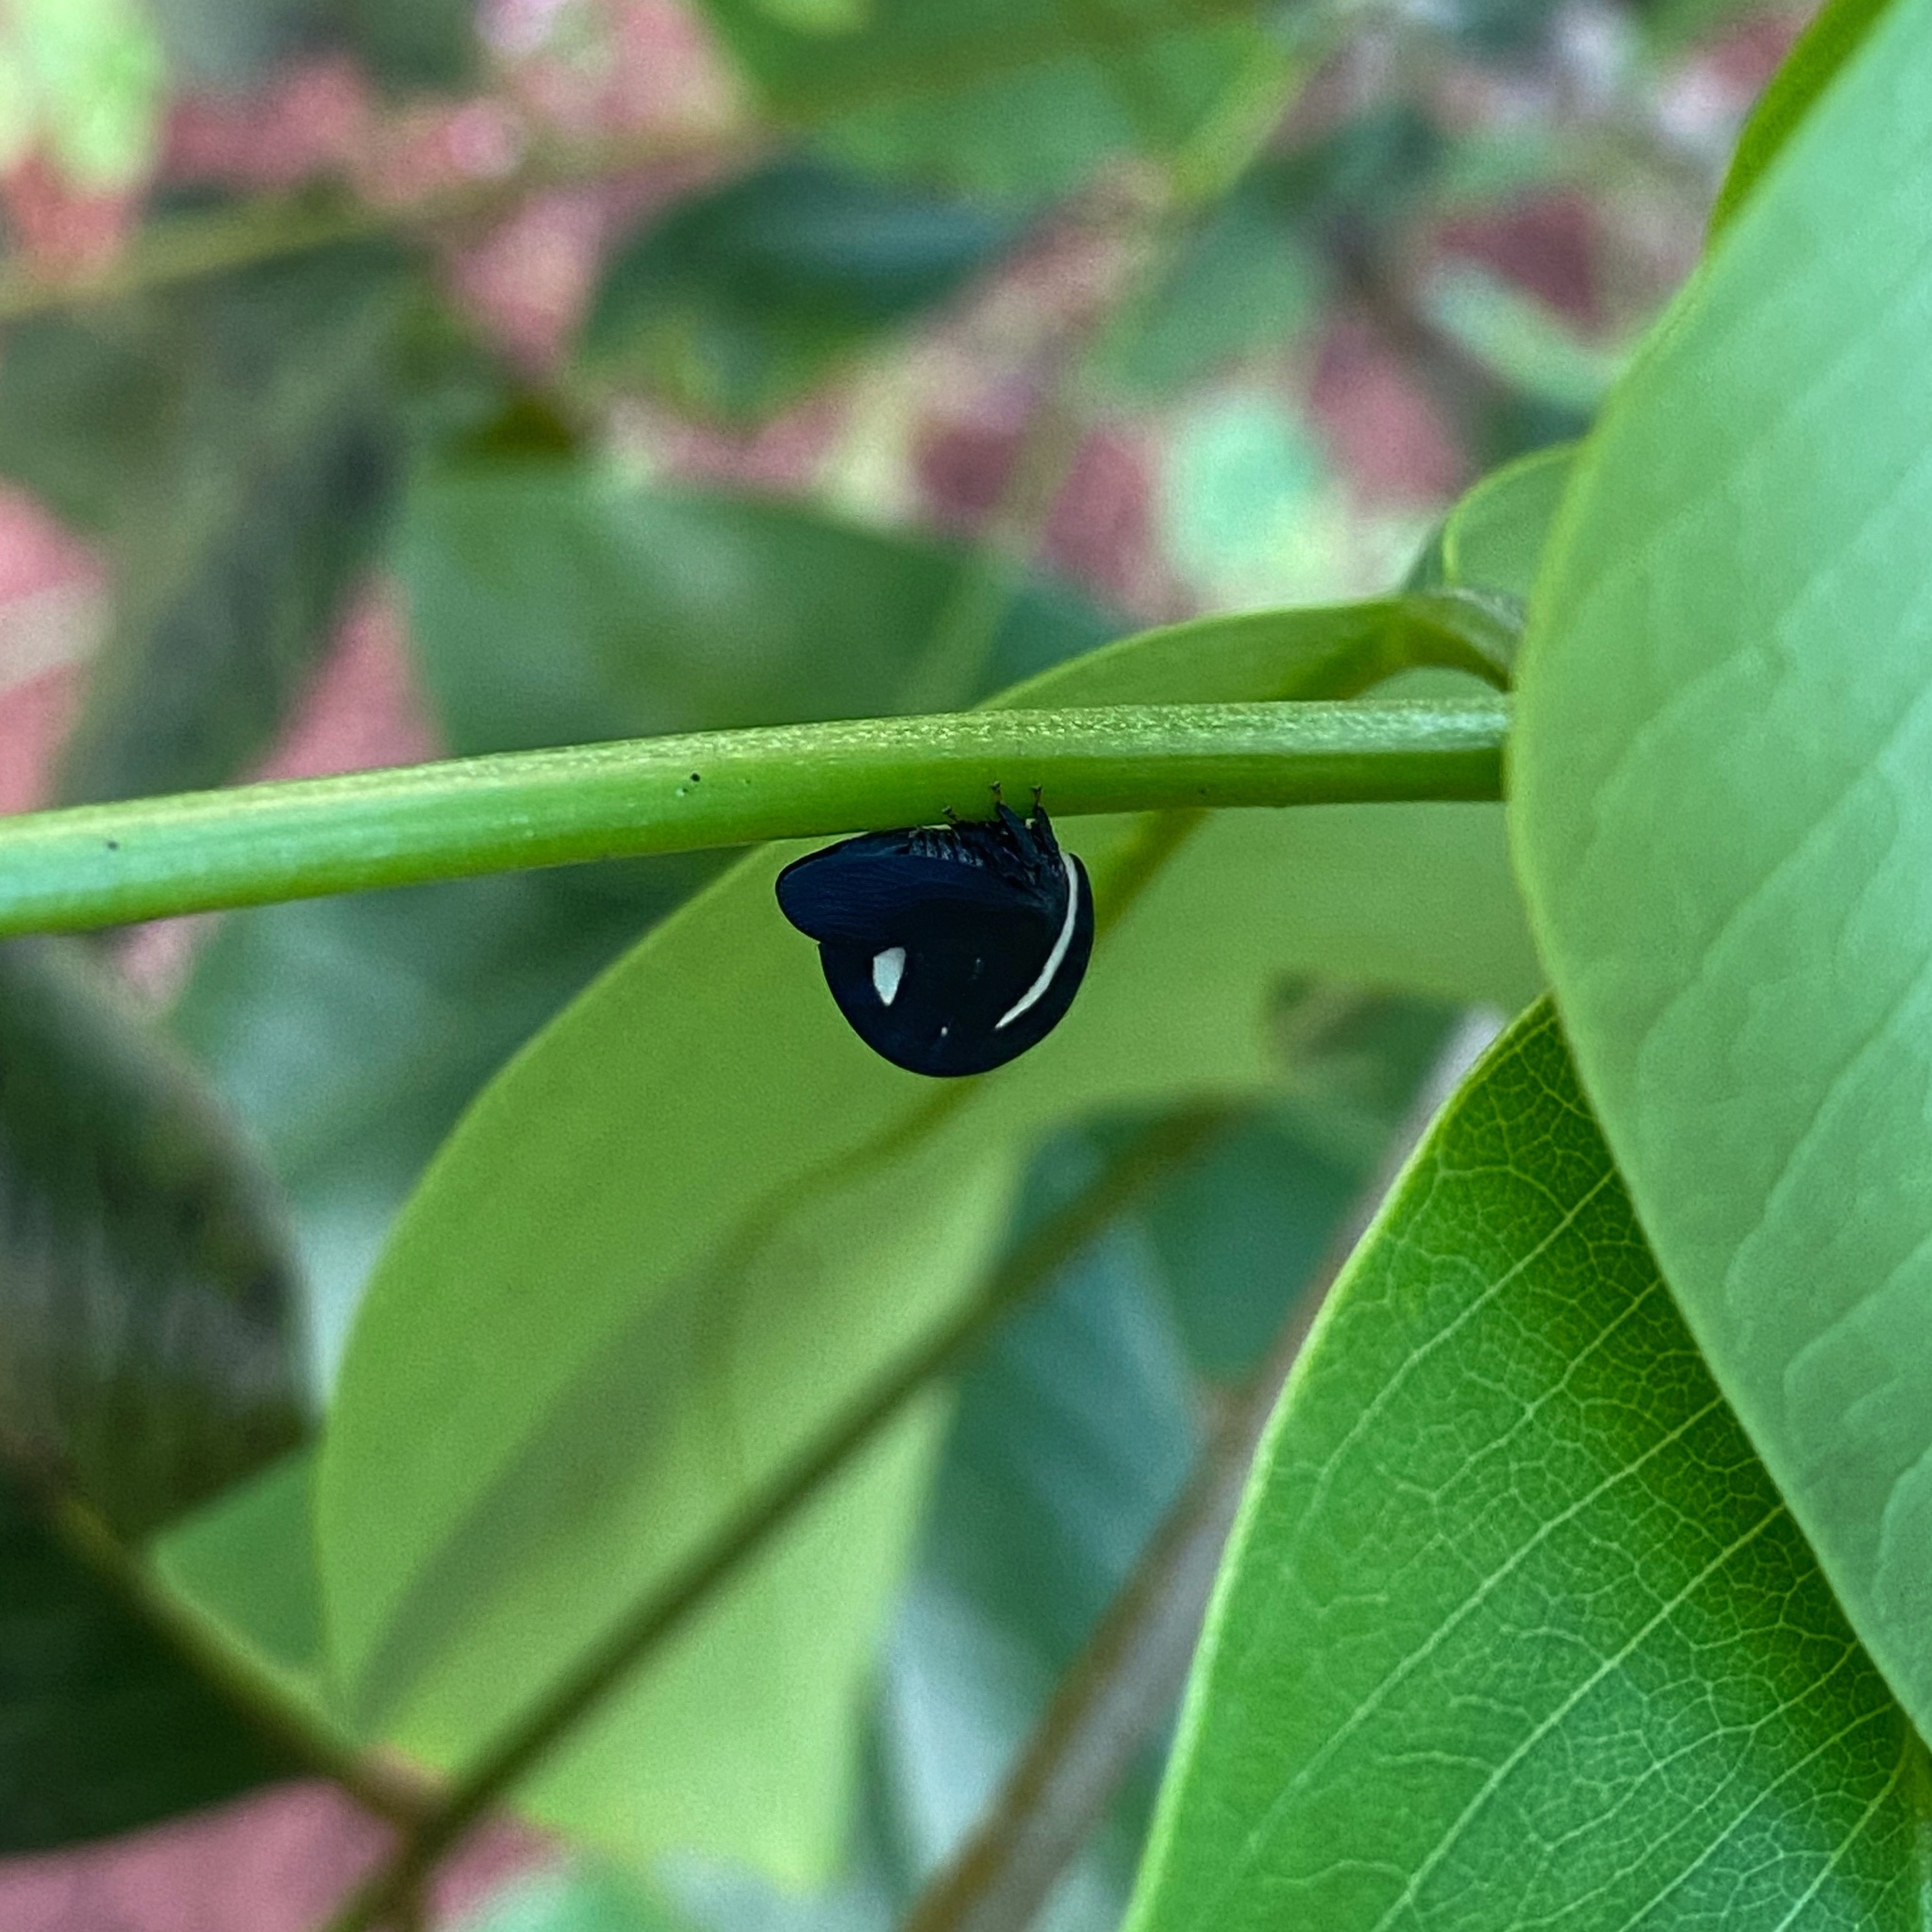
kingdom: Animalia
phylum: Arthropoda
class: Insecta
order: Hemiptera
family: Membracidae
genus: Membracis
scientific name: Membracis
